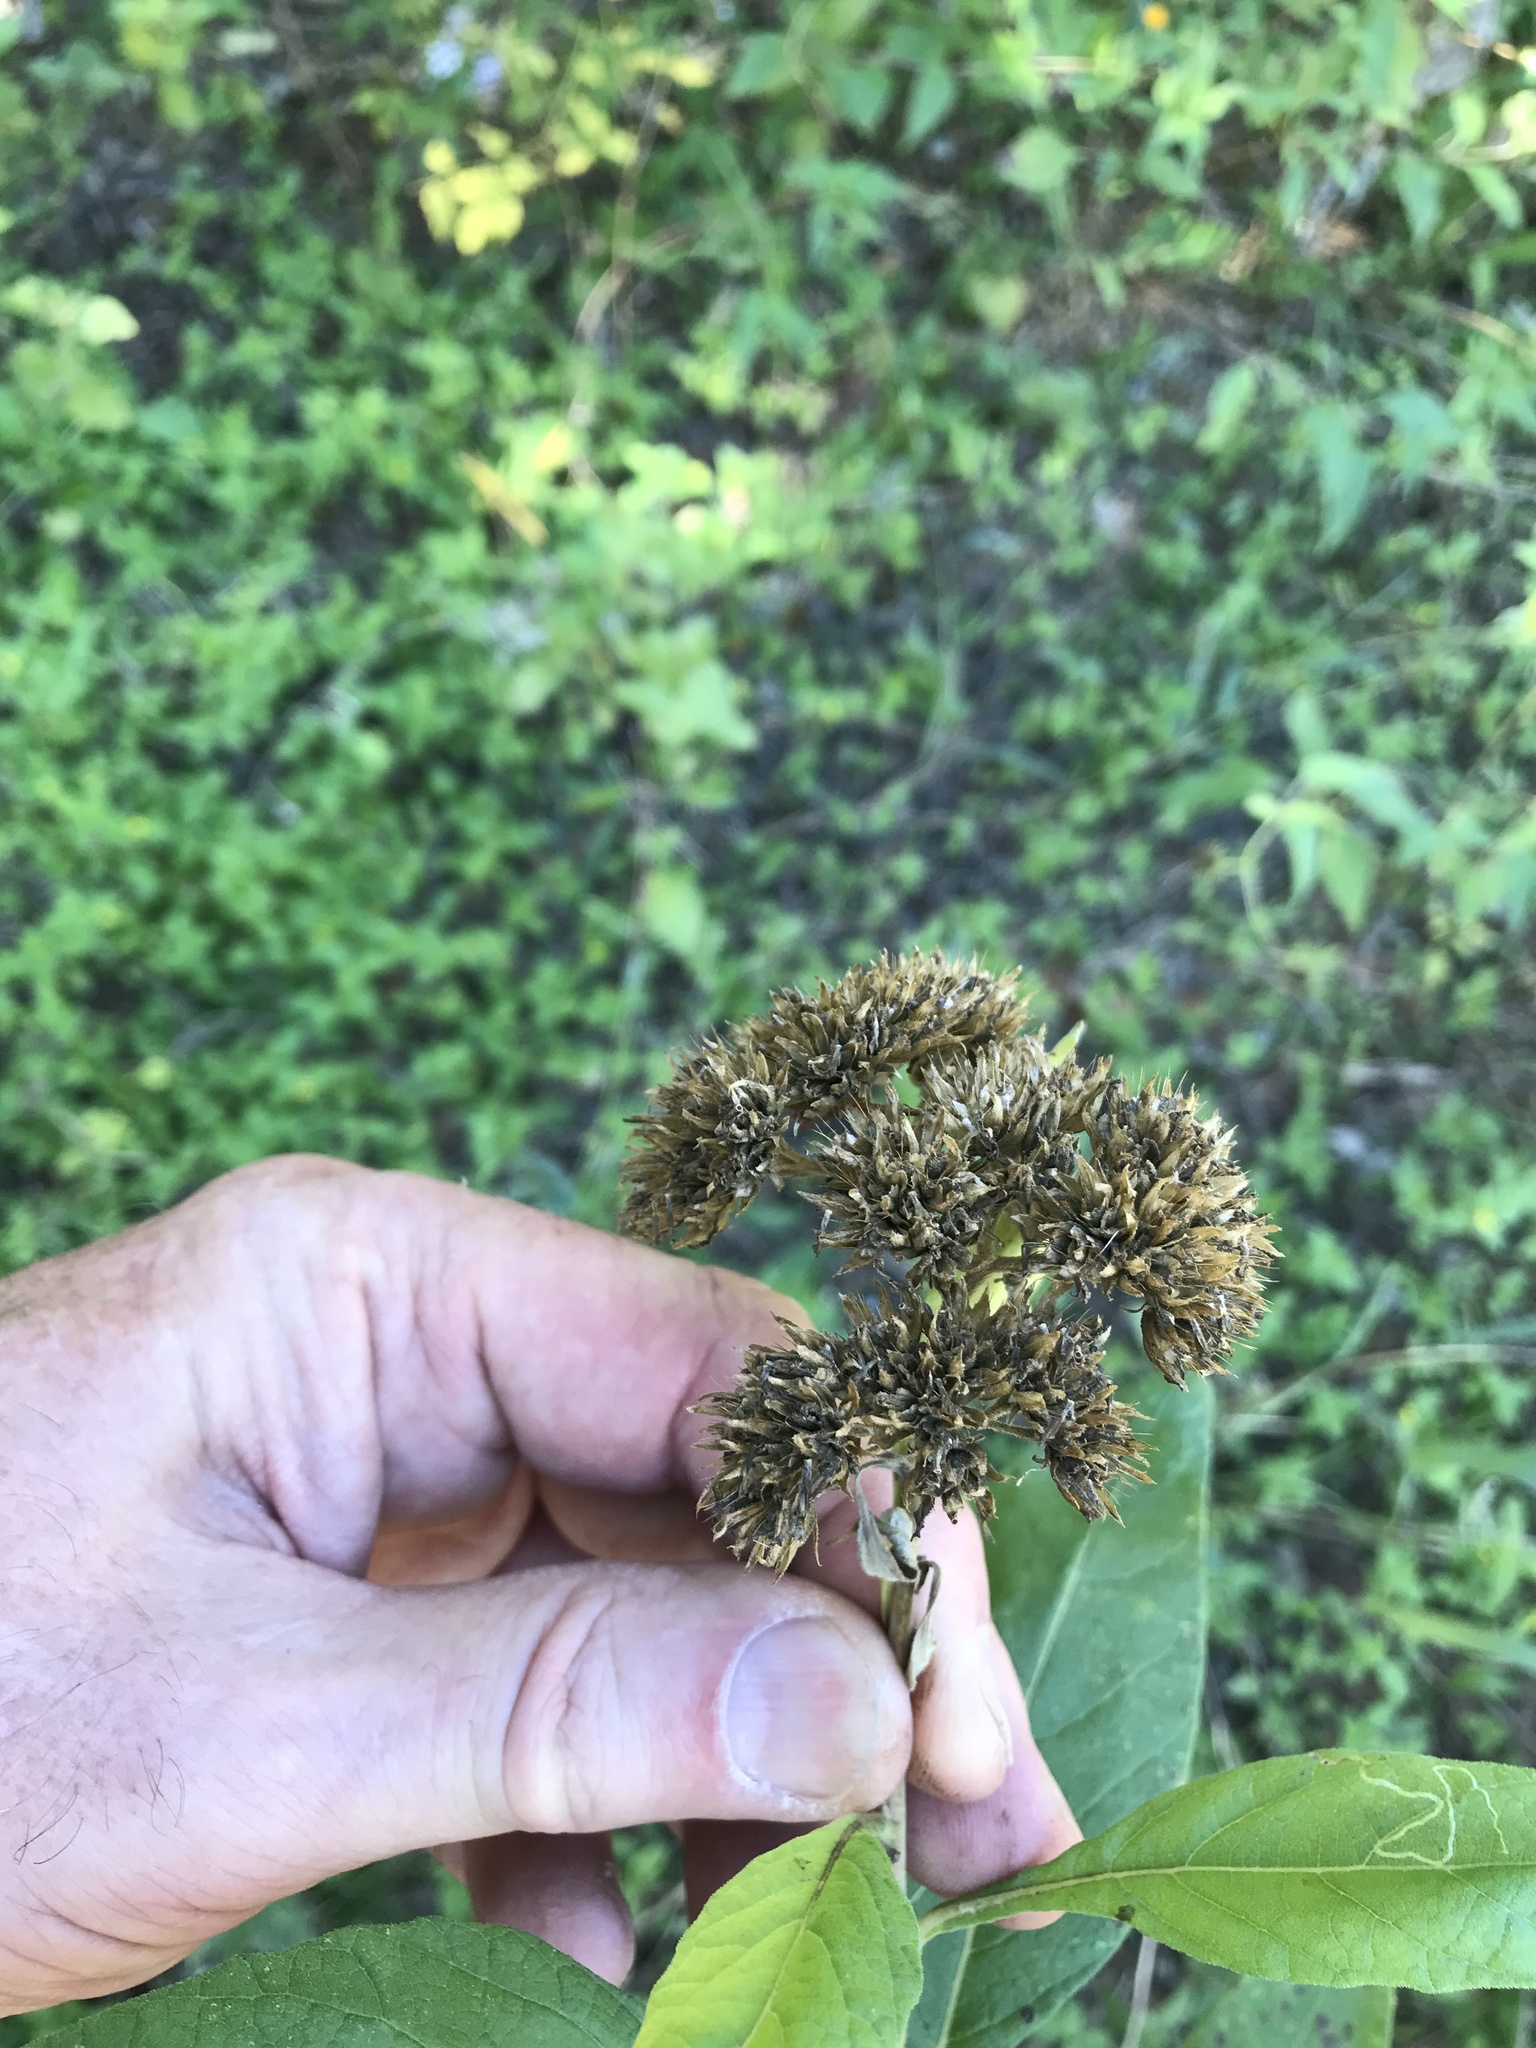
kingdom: Plantae
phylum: Tracheophyta
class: Magnoliopsida
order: Asterales
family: Asteraceae
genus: Verbesina
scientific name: Verbesina virginica
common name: Frostweed
